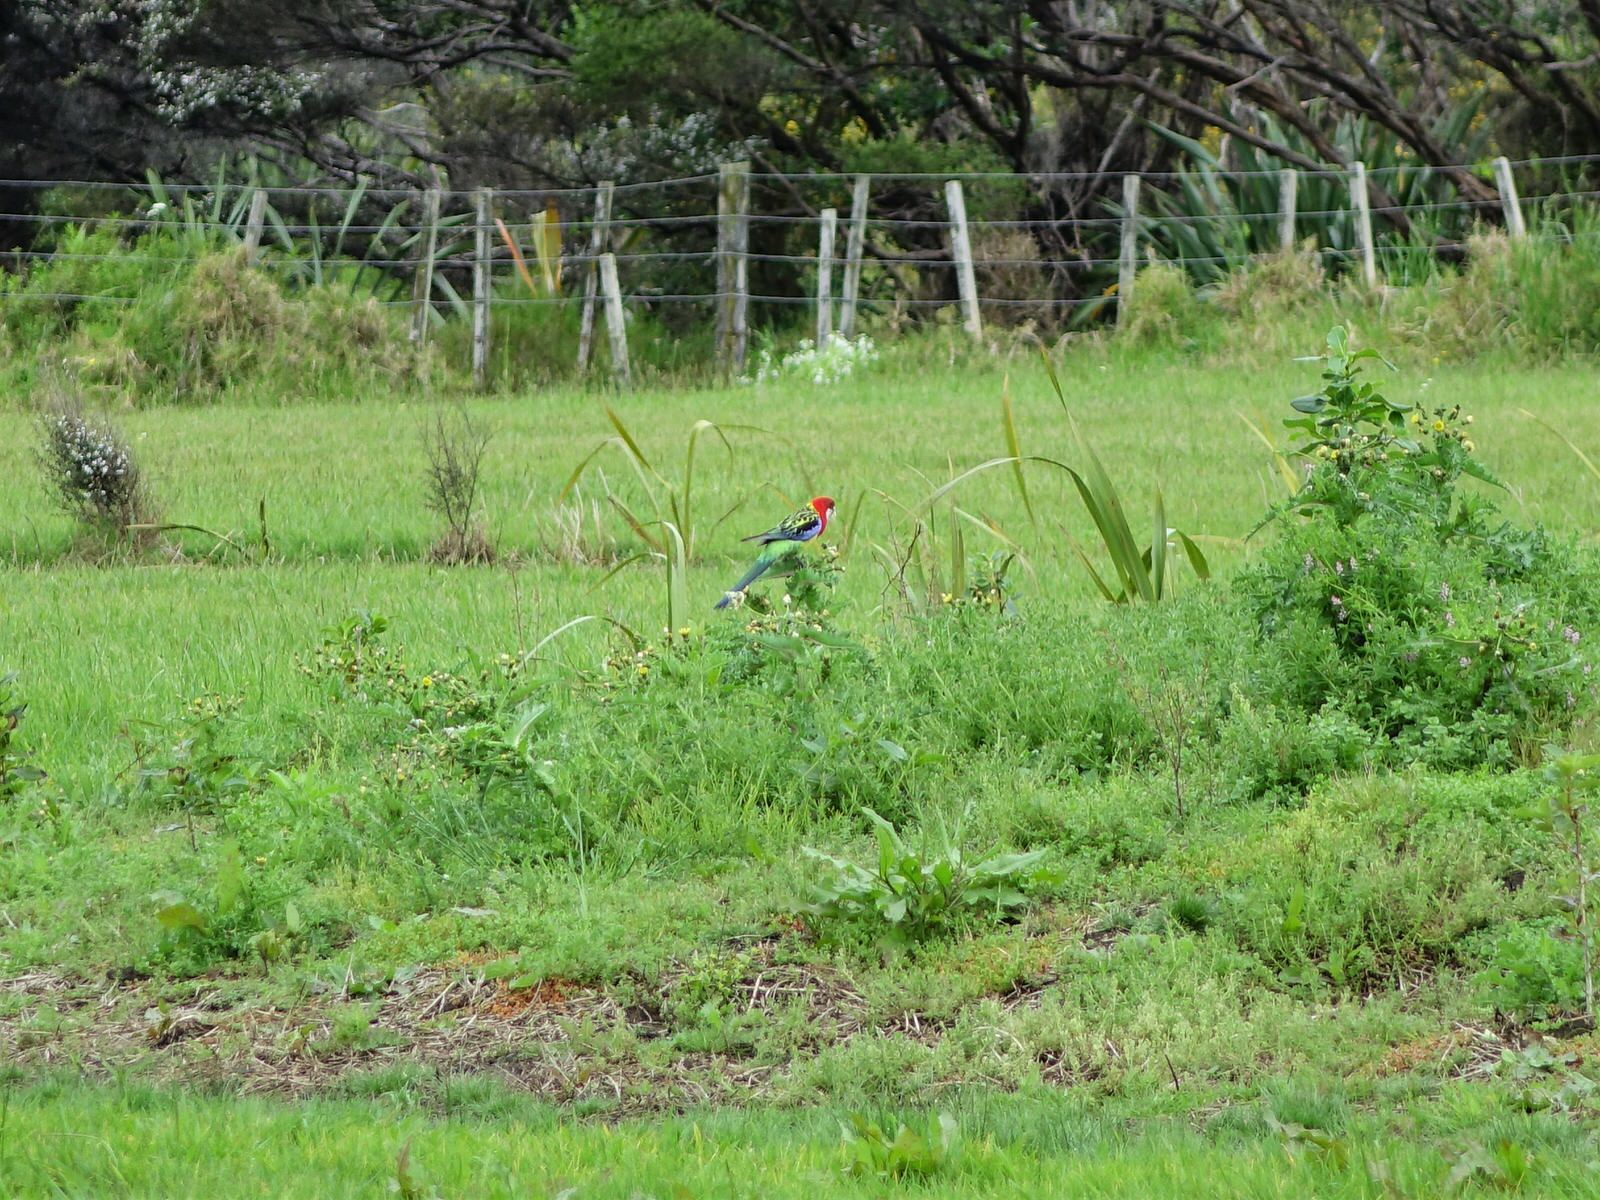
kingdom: Animalia
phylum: Chordata
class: Aves
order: Psittaciformes
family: Psittacidae
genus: Platycercus
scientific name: Platycercus eximius
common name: Eastern rosella
